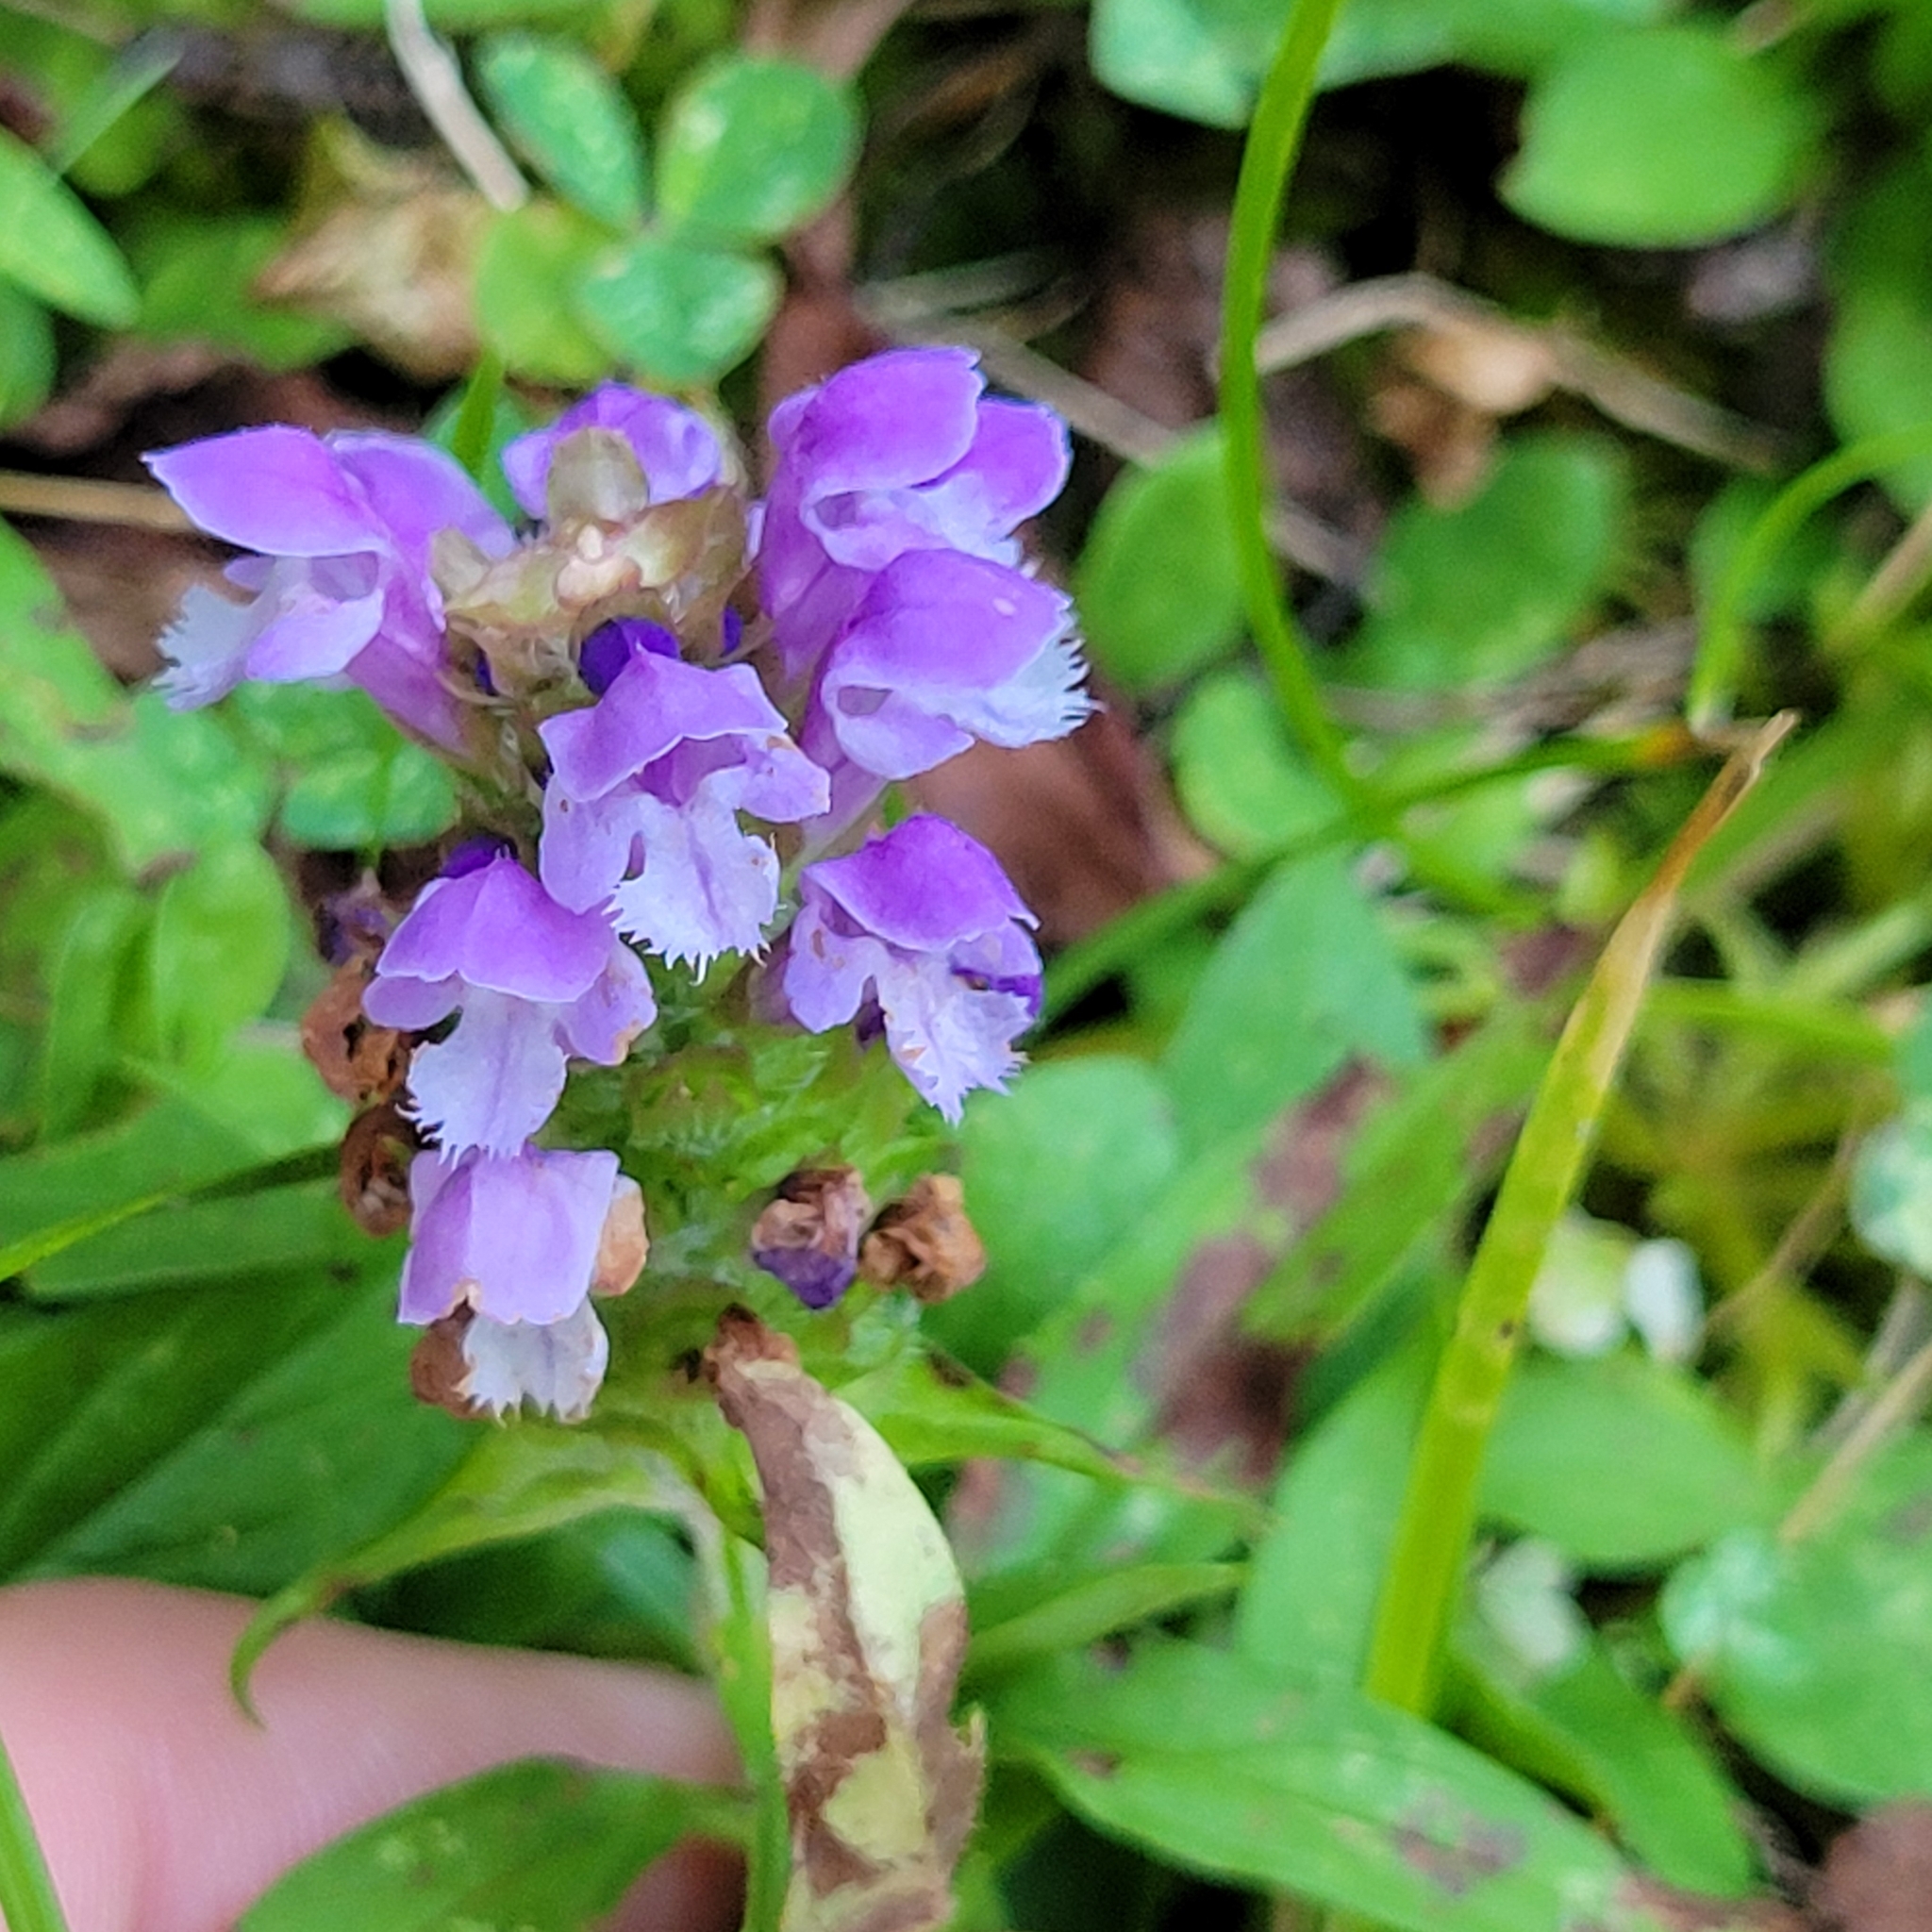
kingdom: Plantae
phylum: Tracheophyta
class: Magnoliopsida
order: Lamiales
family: Lamiaceae
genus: Prunella
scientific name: Prunella vulgaris
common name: Heal-all
